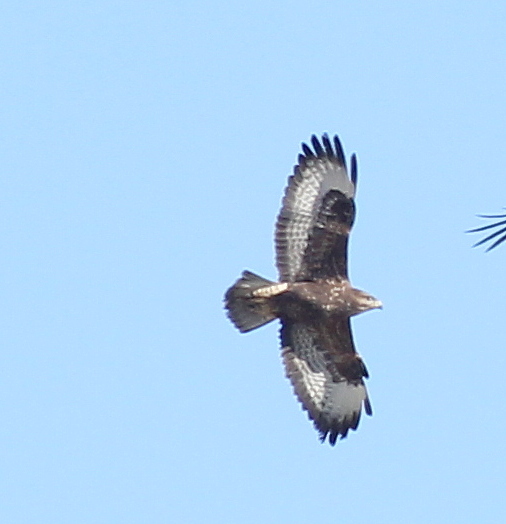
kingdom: Animalia
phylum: Chordata
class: Aves
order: Accipitriformes
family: Accipitridae
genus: Buteo
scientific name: Buteo buteo
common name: Common buzzard
